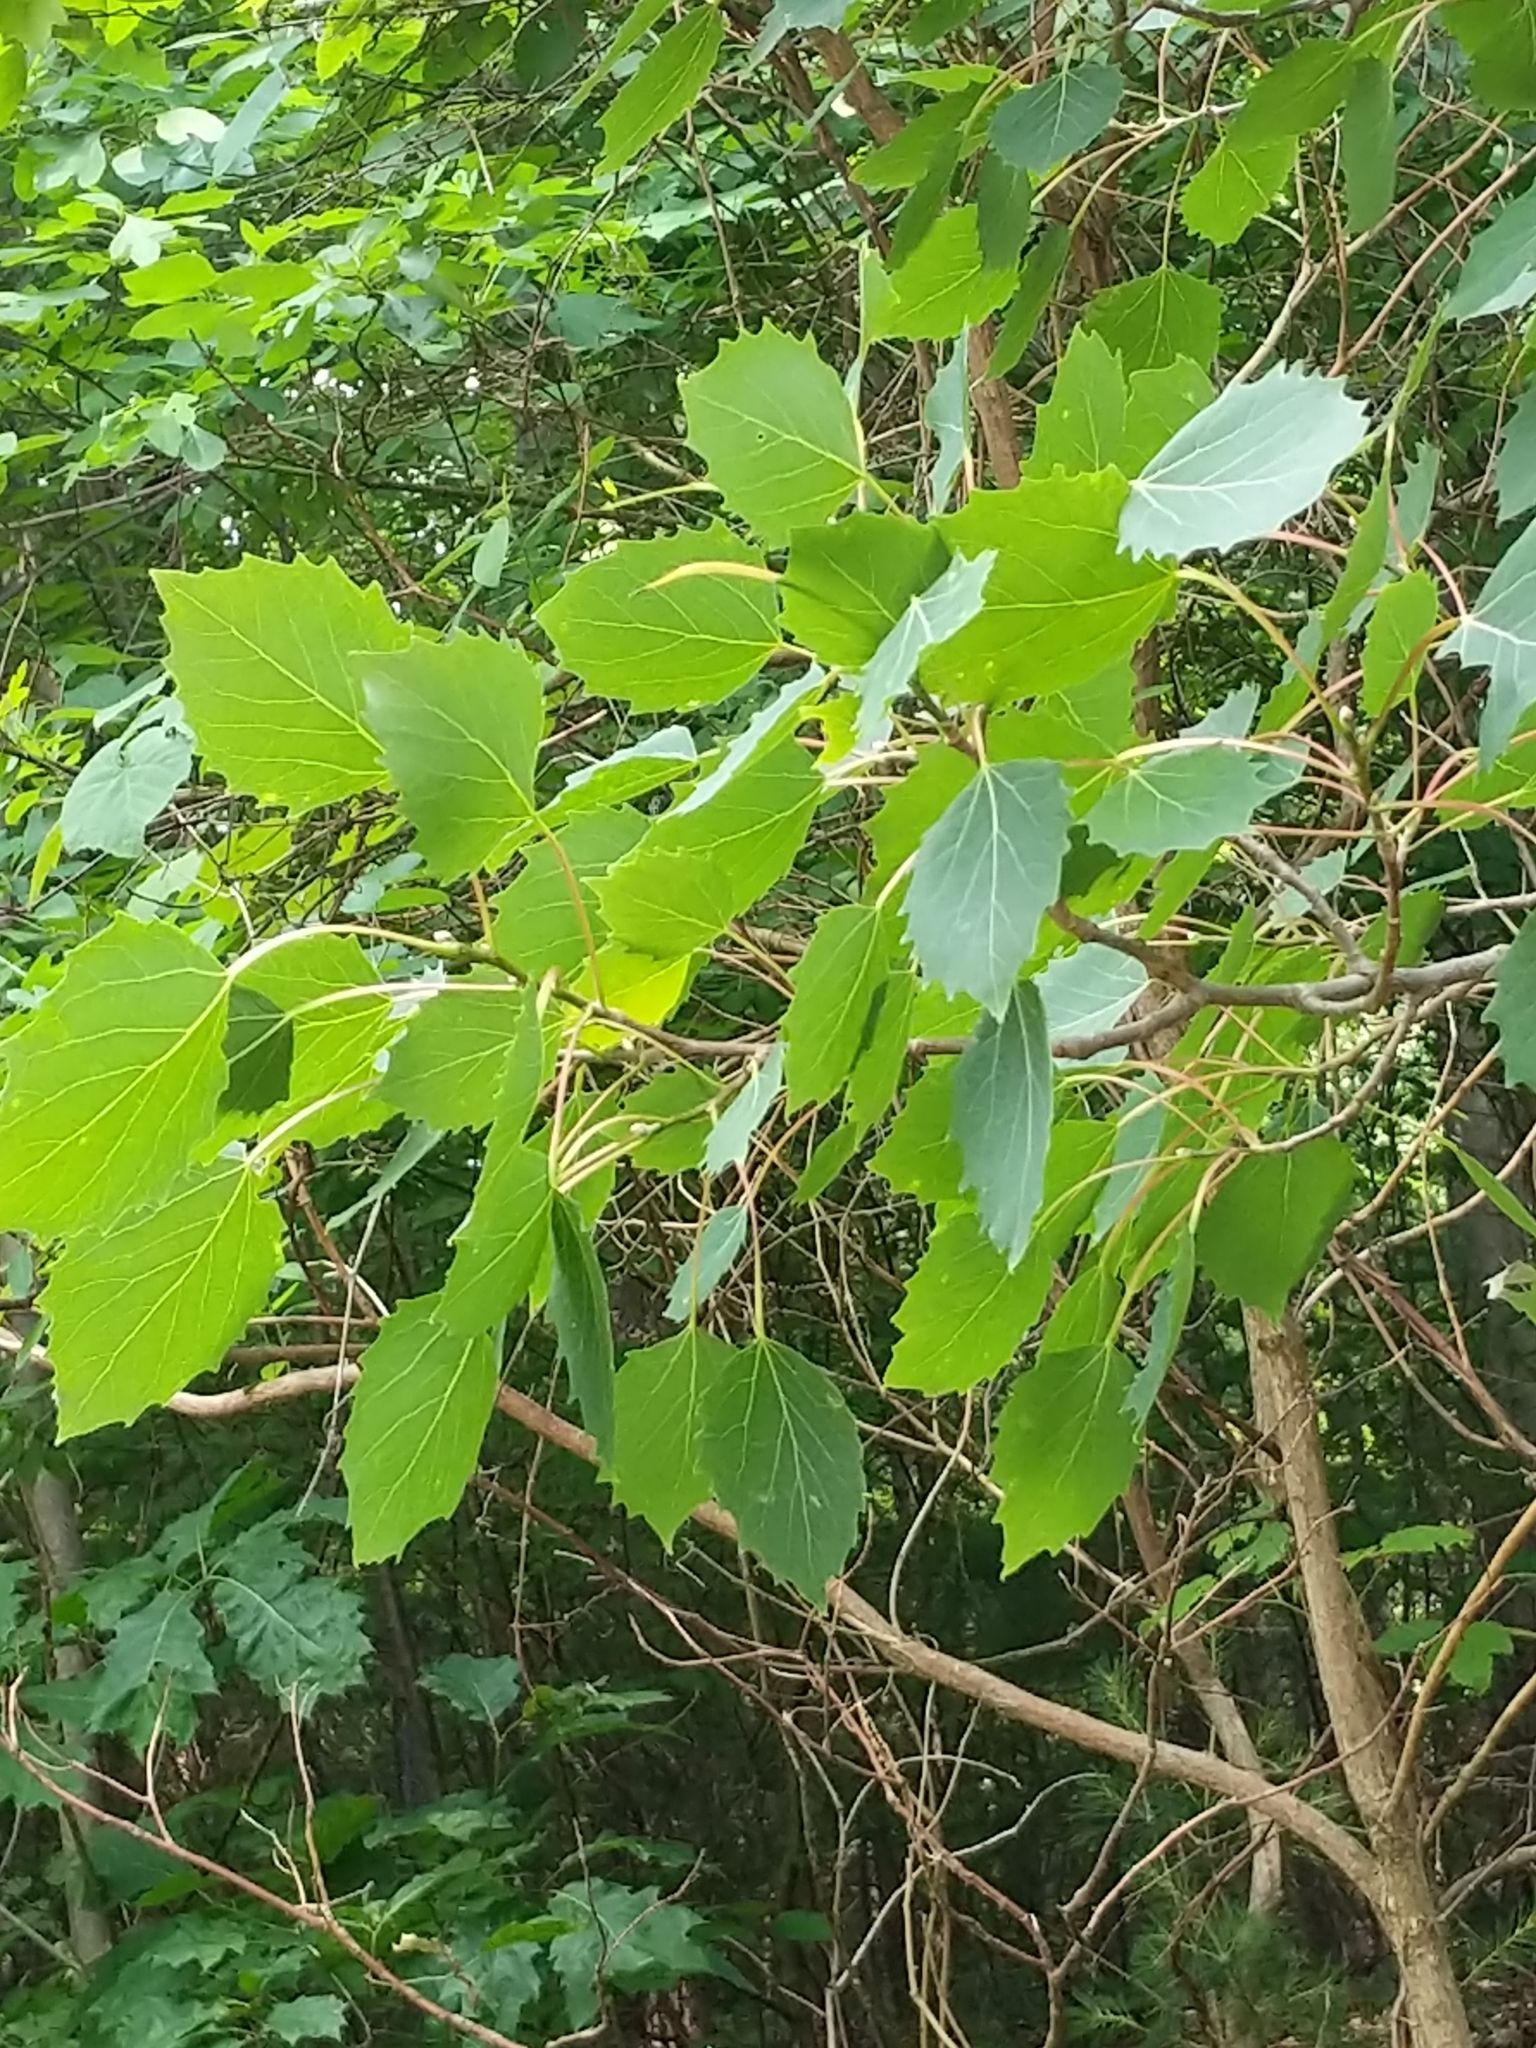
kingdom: Plantae
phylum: Tracheophyta
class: Magnoliopsida
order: Malpighiales
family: Salicaceae
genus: Populus
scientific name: Populus grandidentata
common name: Bigtooth aspen
